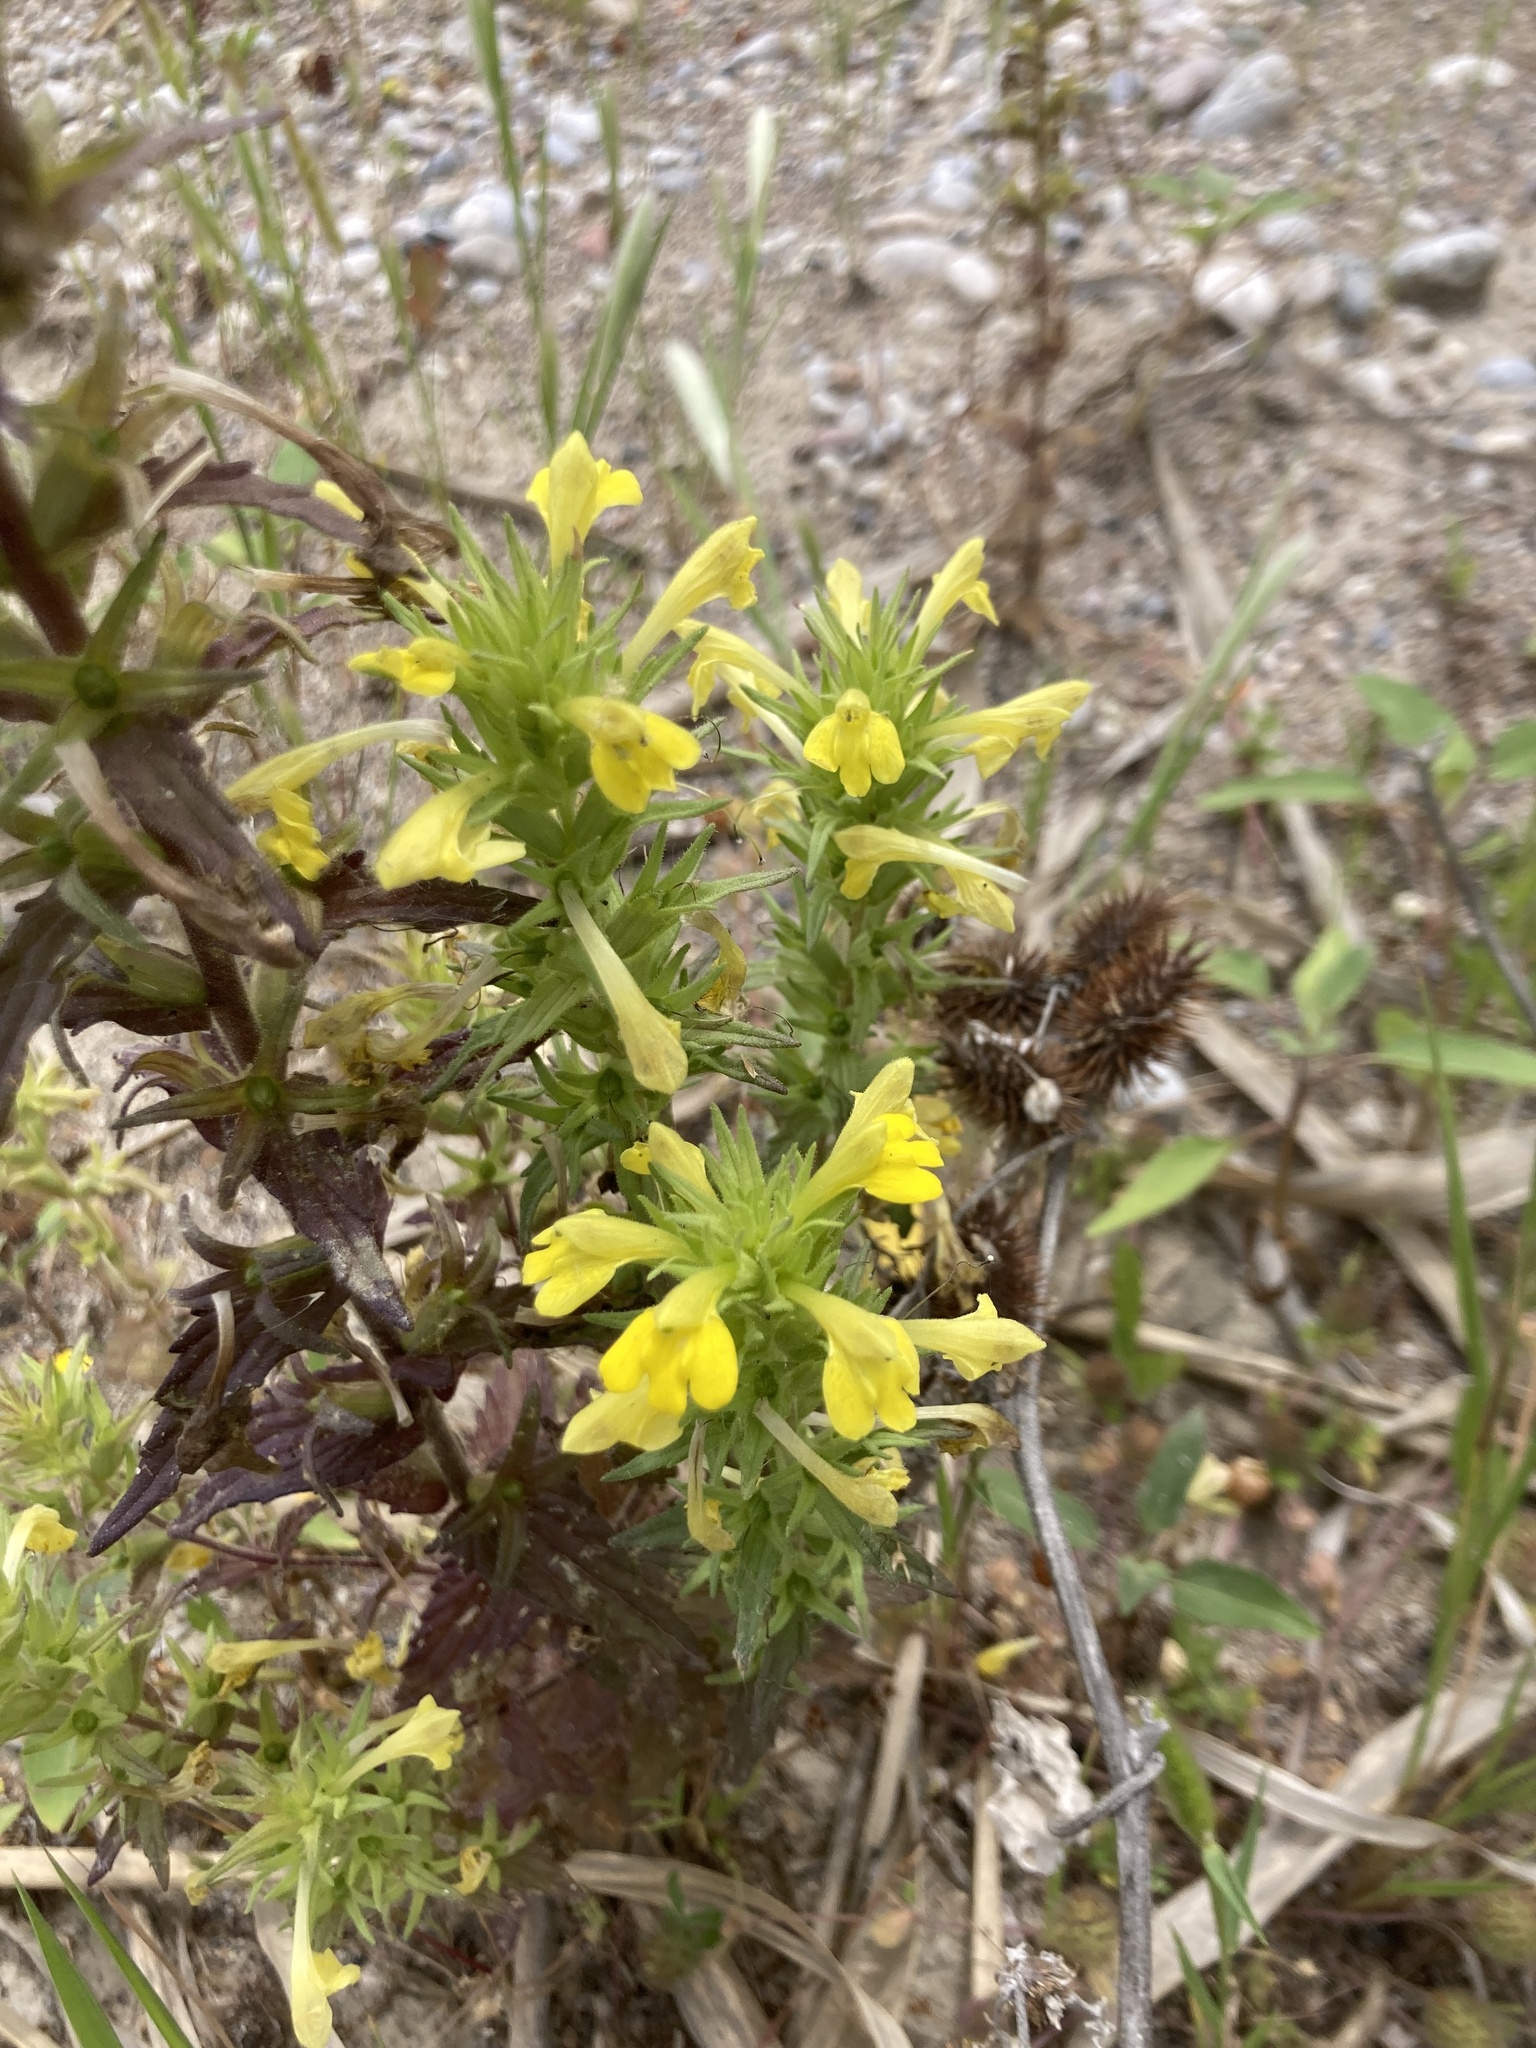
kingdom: Plantae
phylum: Tracheophyta
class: Magnoliopsida
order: Lamiales
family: Orobanchaceae
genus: Bellardia
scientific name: Bellardia viscosa
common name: Sticky parentucellia
